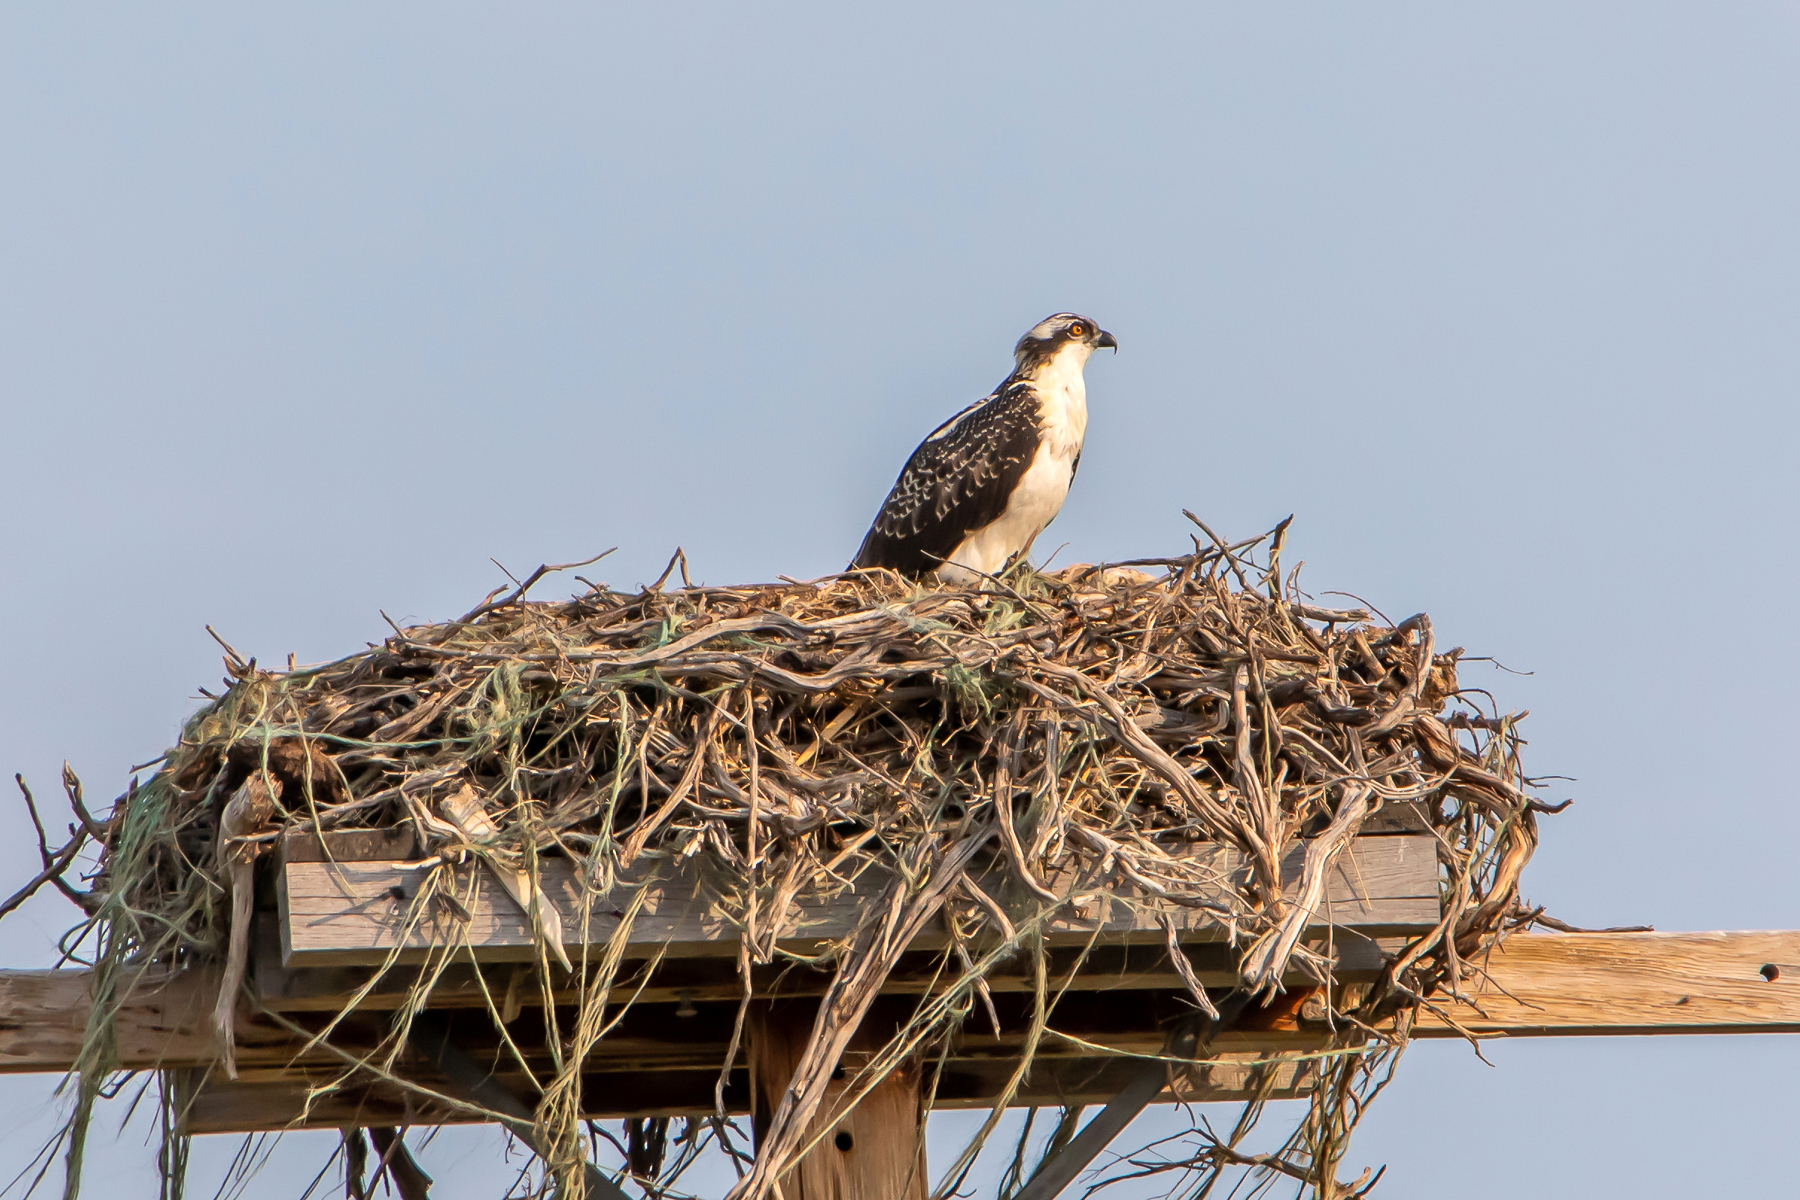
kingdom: Animalia
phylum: Chordata
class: Aves
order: Accipitriformes
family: Pandionidae
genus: Pandion
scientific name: Pandion haliaetus
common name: Osprey
